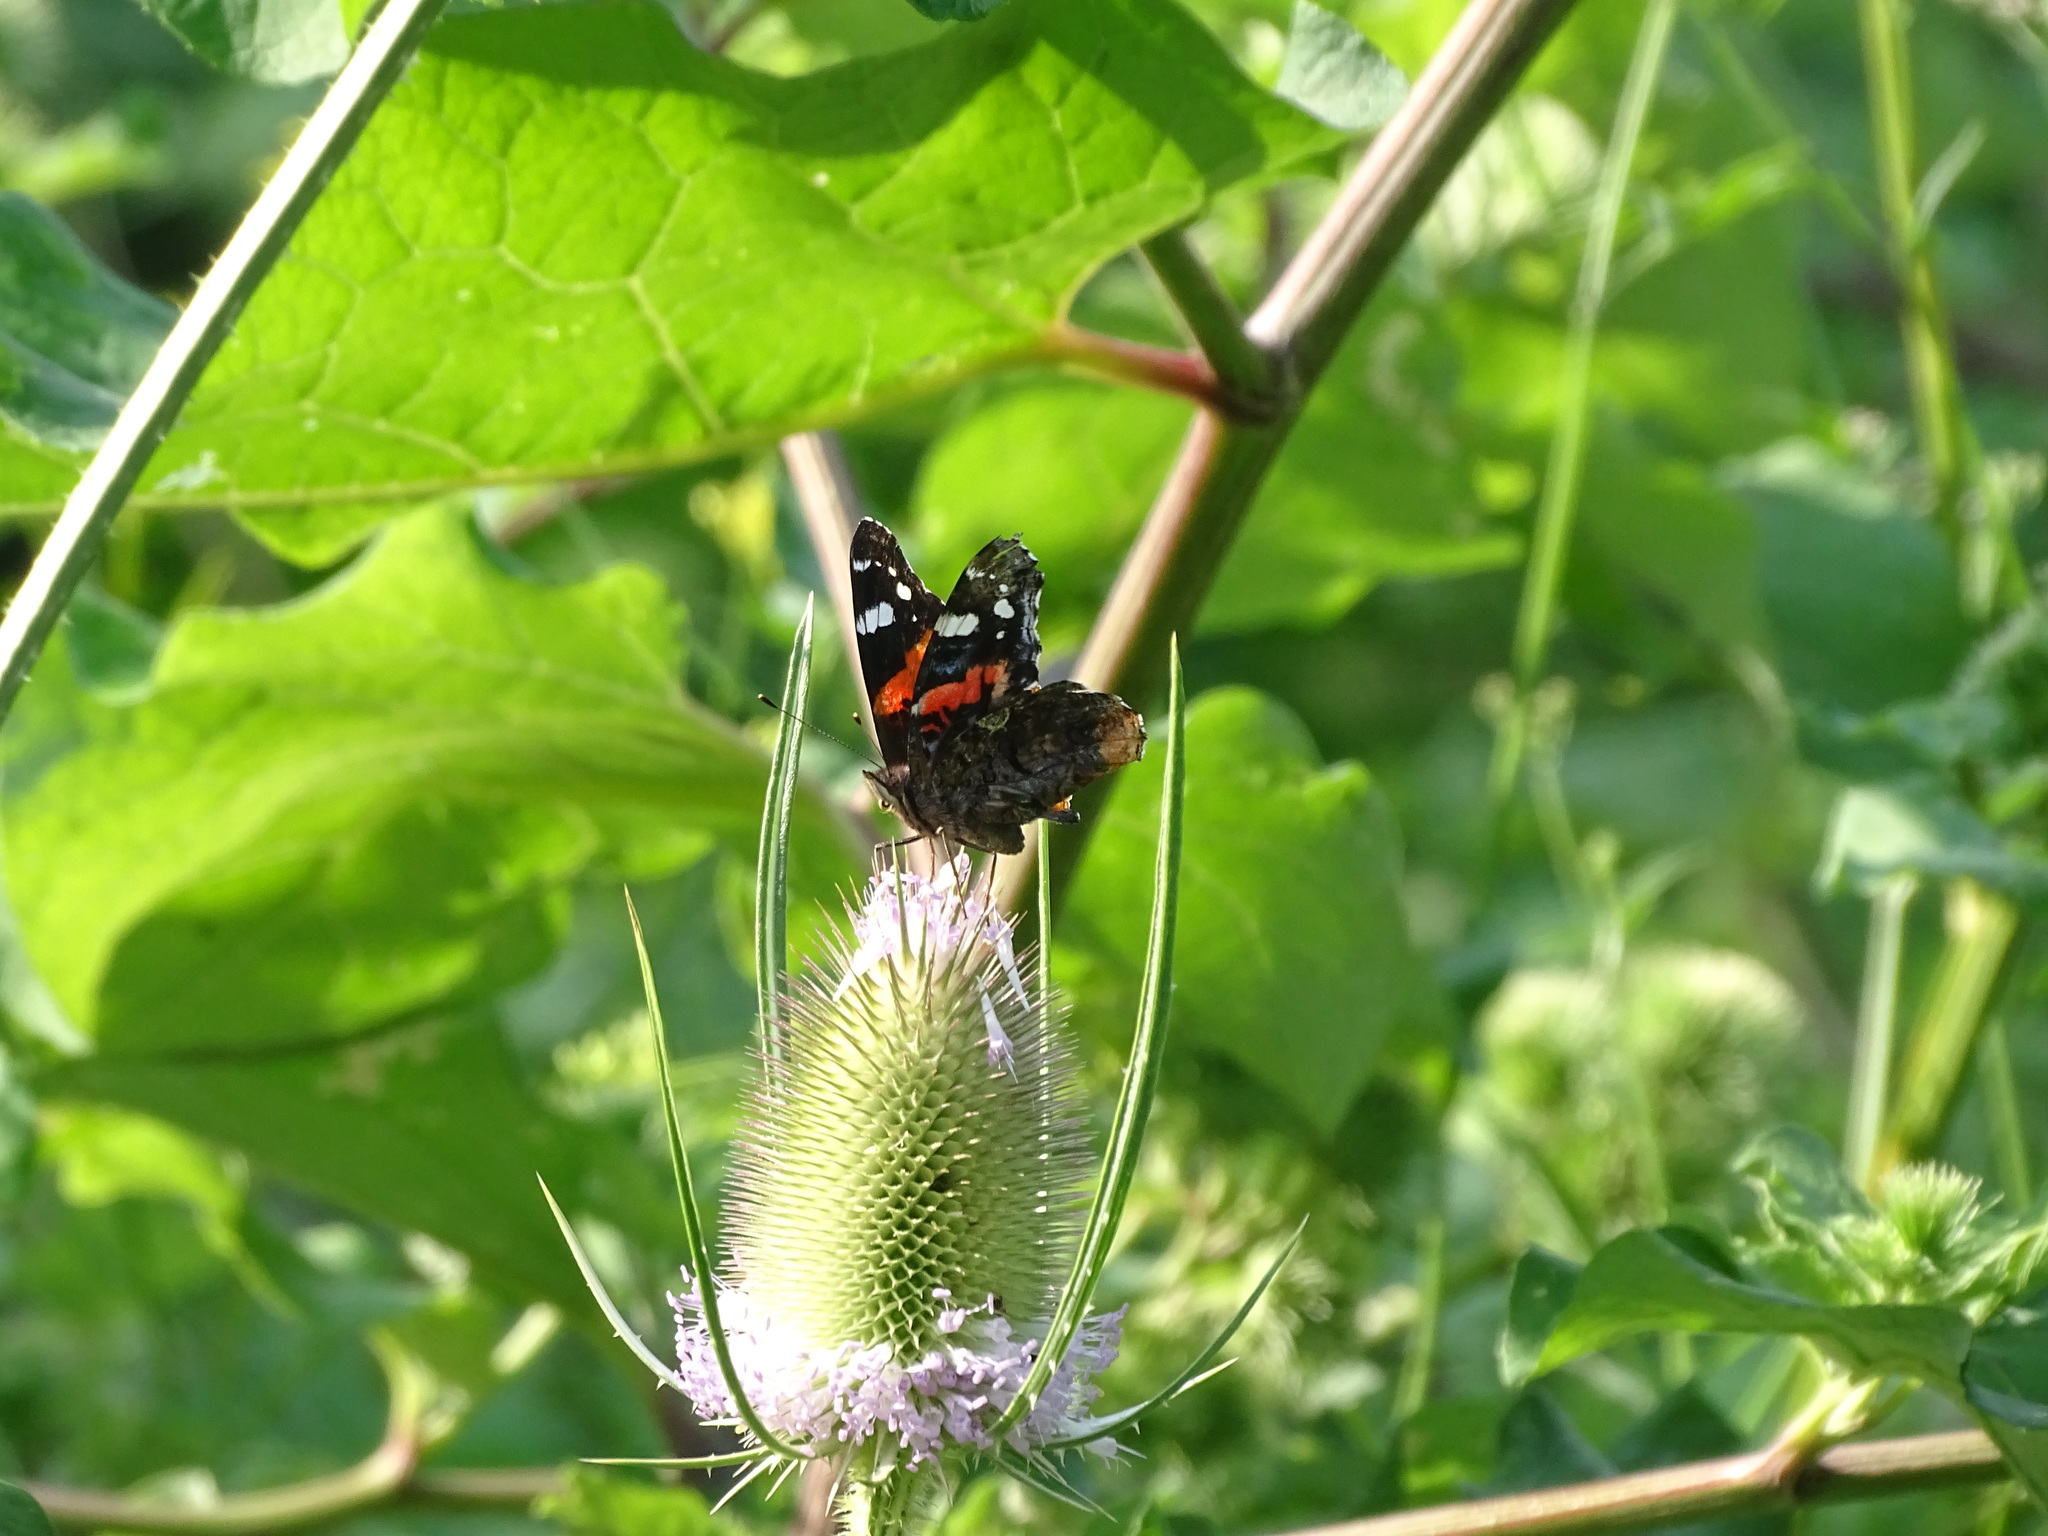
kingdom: Animalia
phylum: Arthropoda
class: Insecta
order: Lepidoptera
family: Nymphalidae
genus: Vanessa
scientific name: Vanessa atalanta
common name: Red admiral
